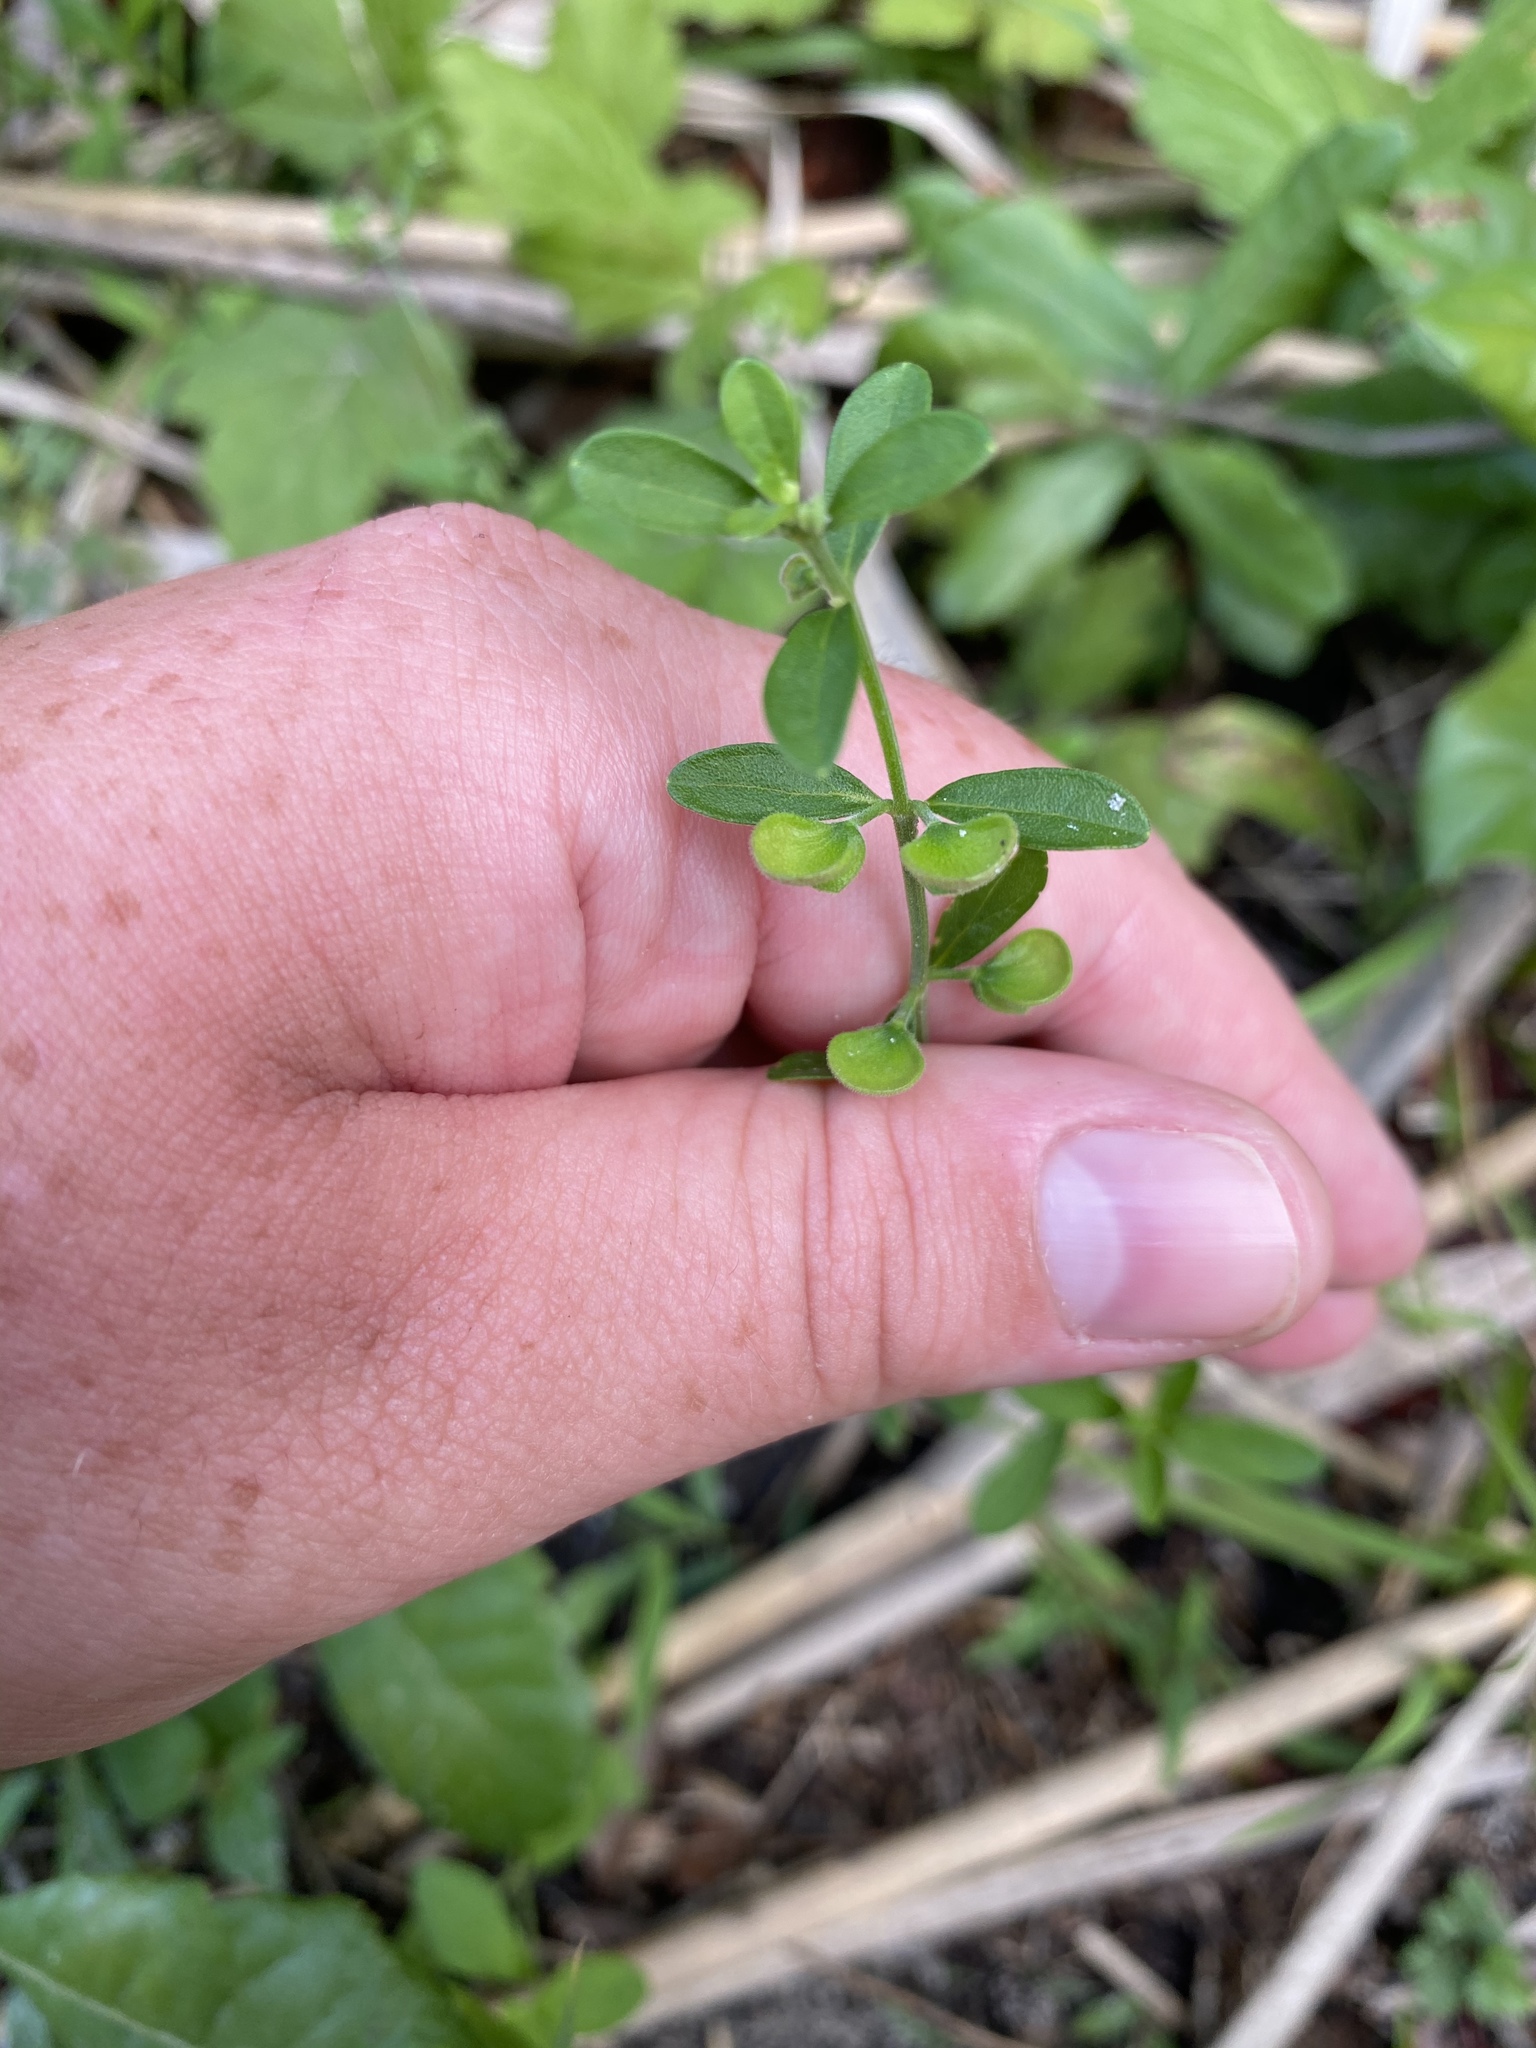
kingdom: Plantae
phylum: Tracheophyta
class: Magnoliopsida
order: Lamiales
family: Lamiaceae
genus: Scutellaria
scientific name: Scutellaria integrifolia
